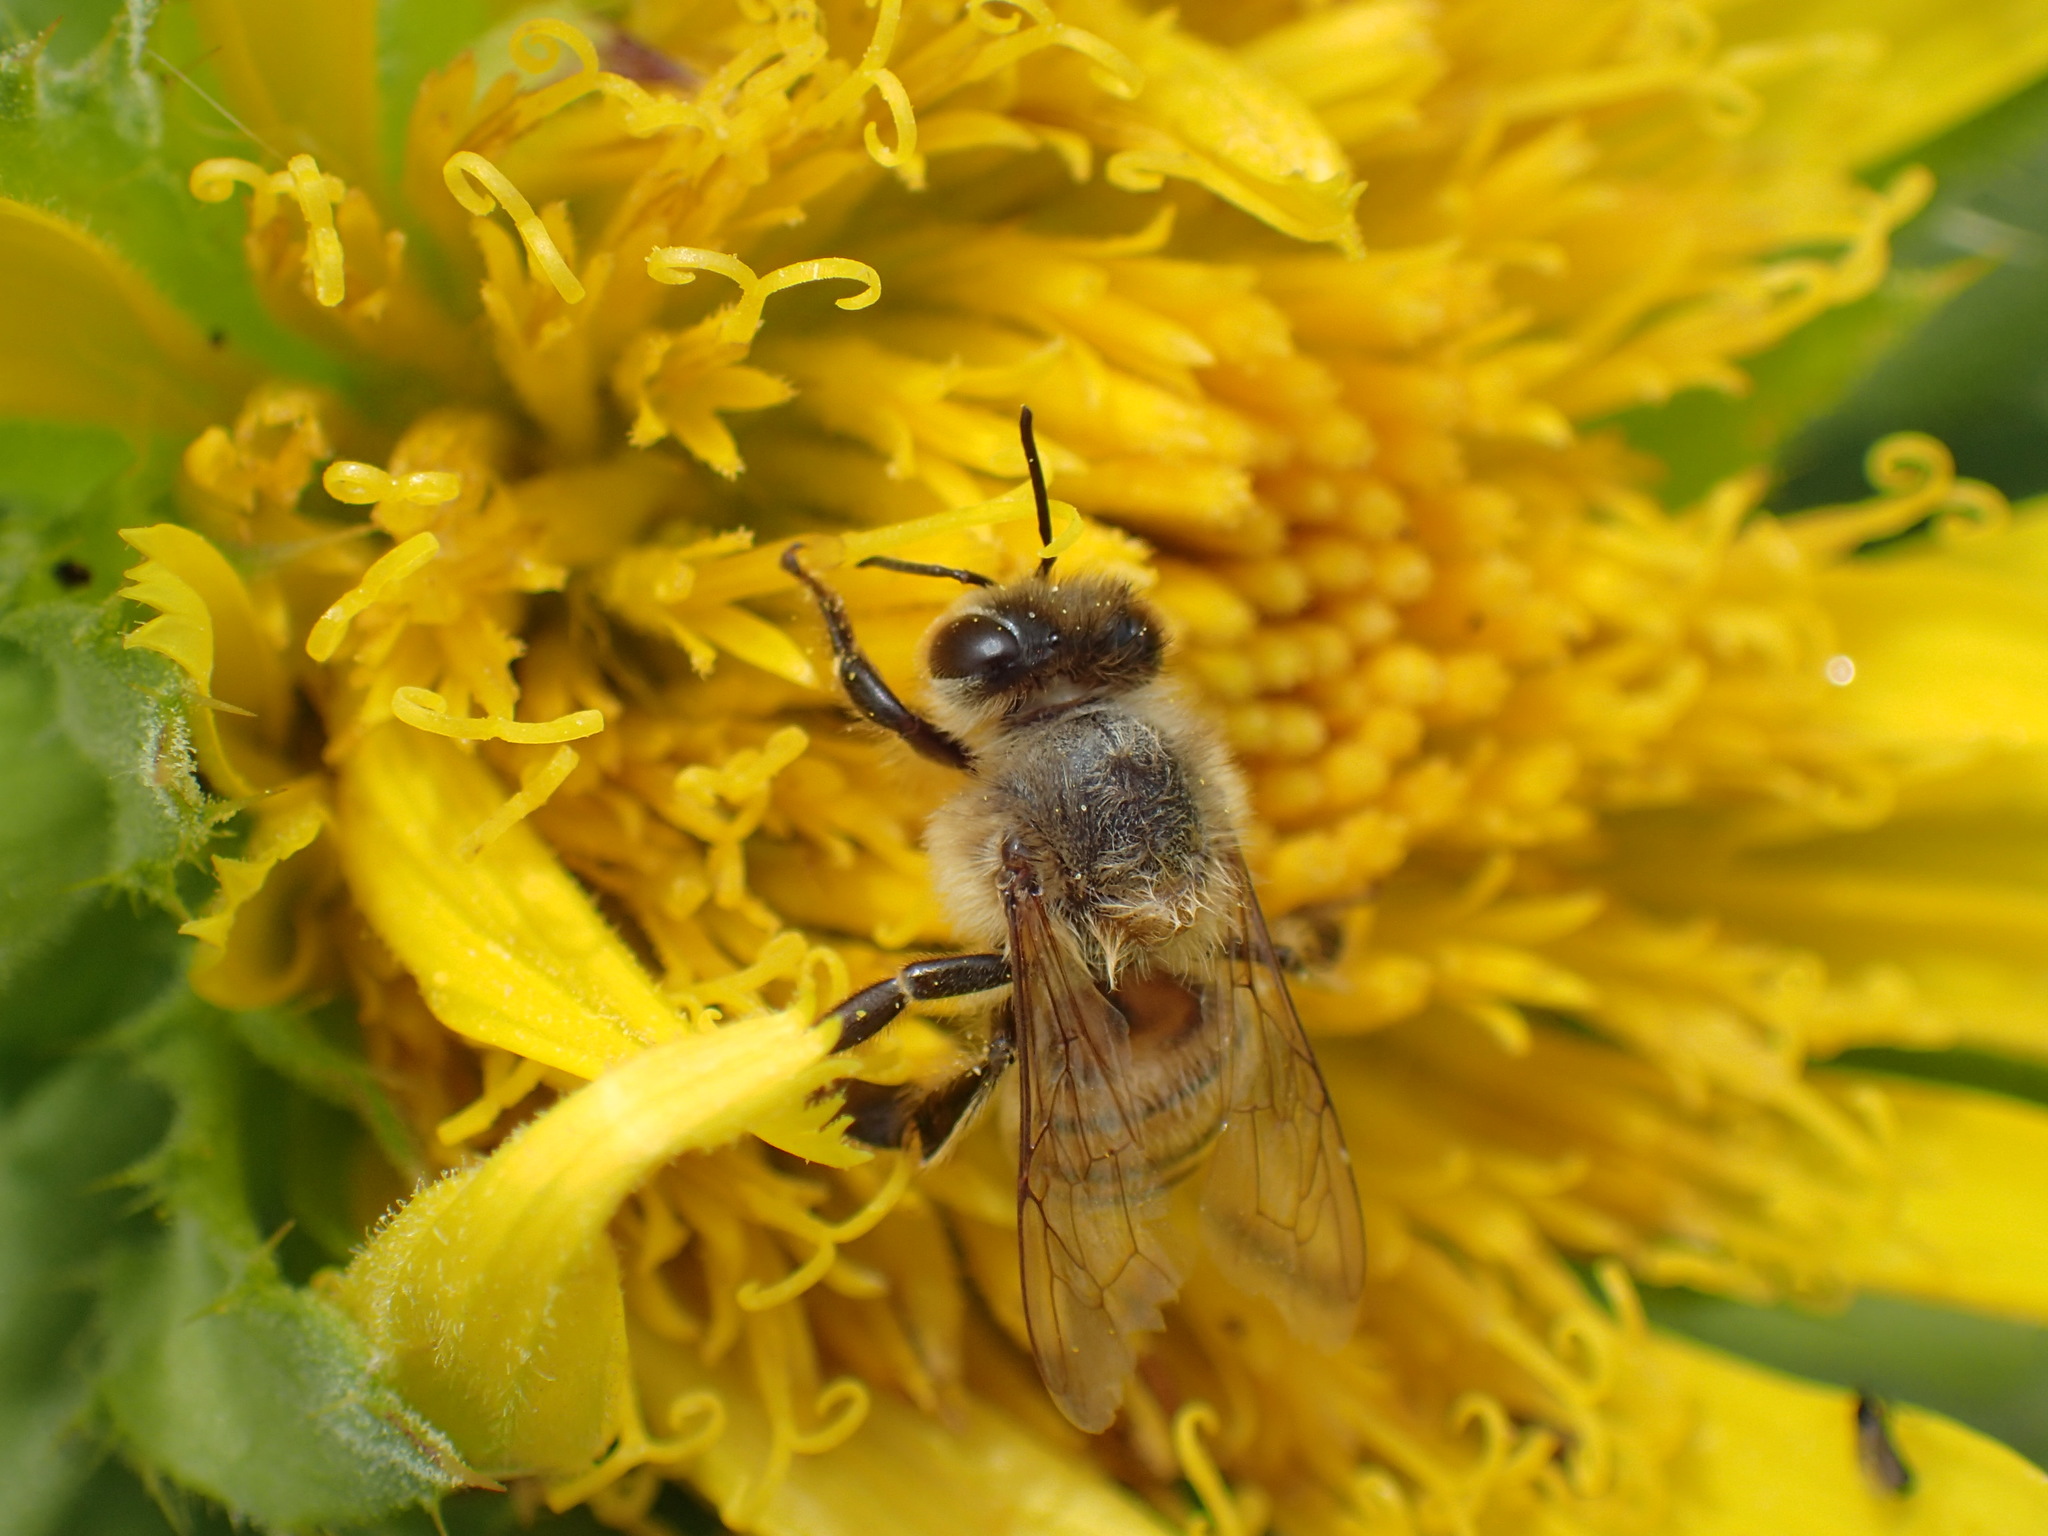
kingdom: Animalia
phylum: Arthropoda
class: Insecta
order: Hymenoptera
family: Apidae
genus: Apis
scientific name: Apis mellifera
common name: Honey bee
